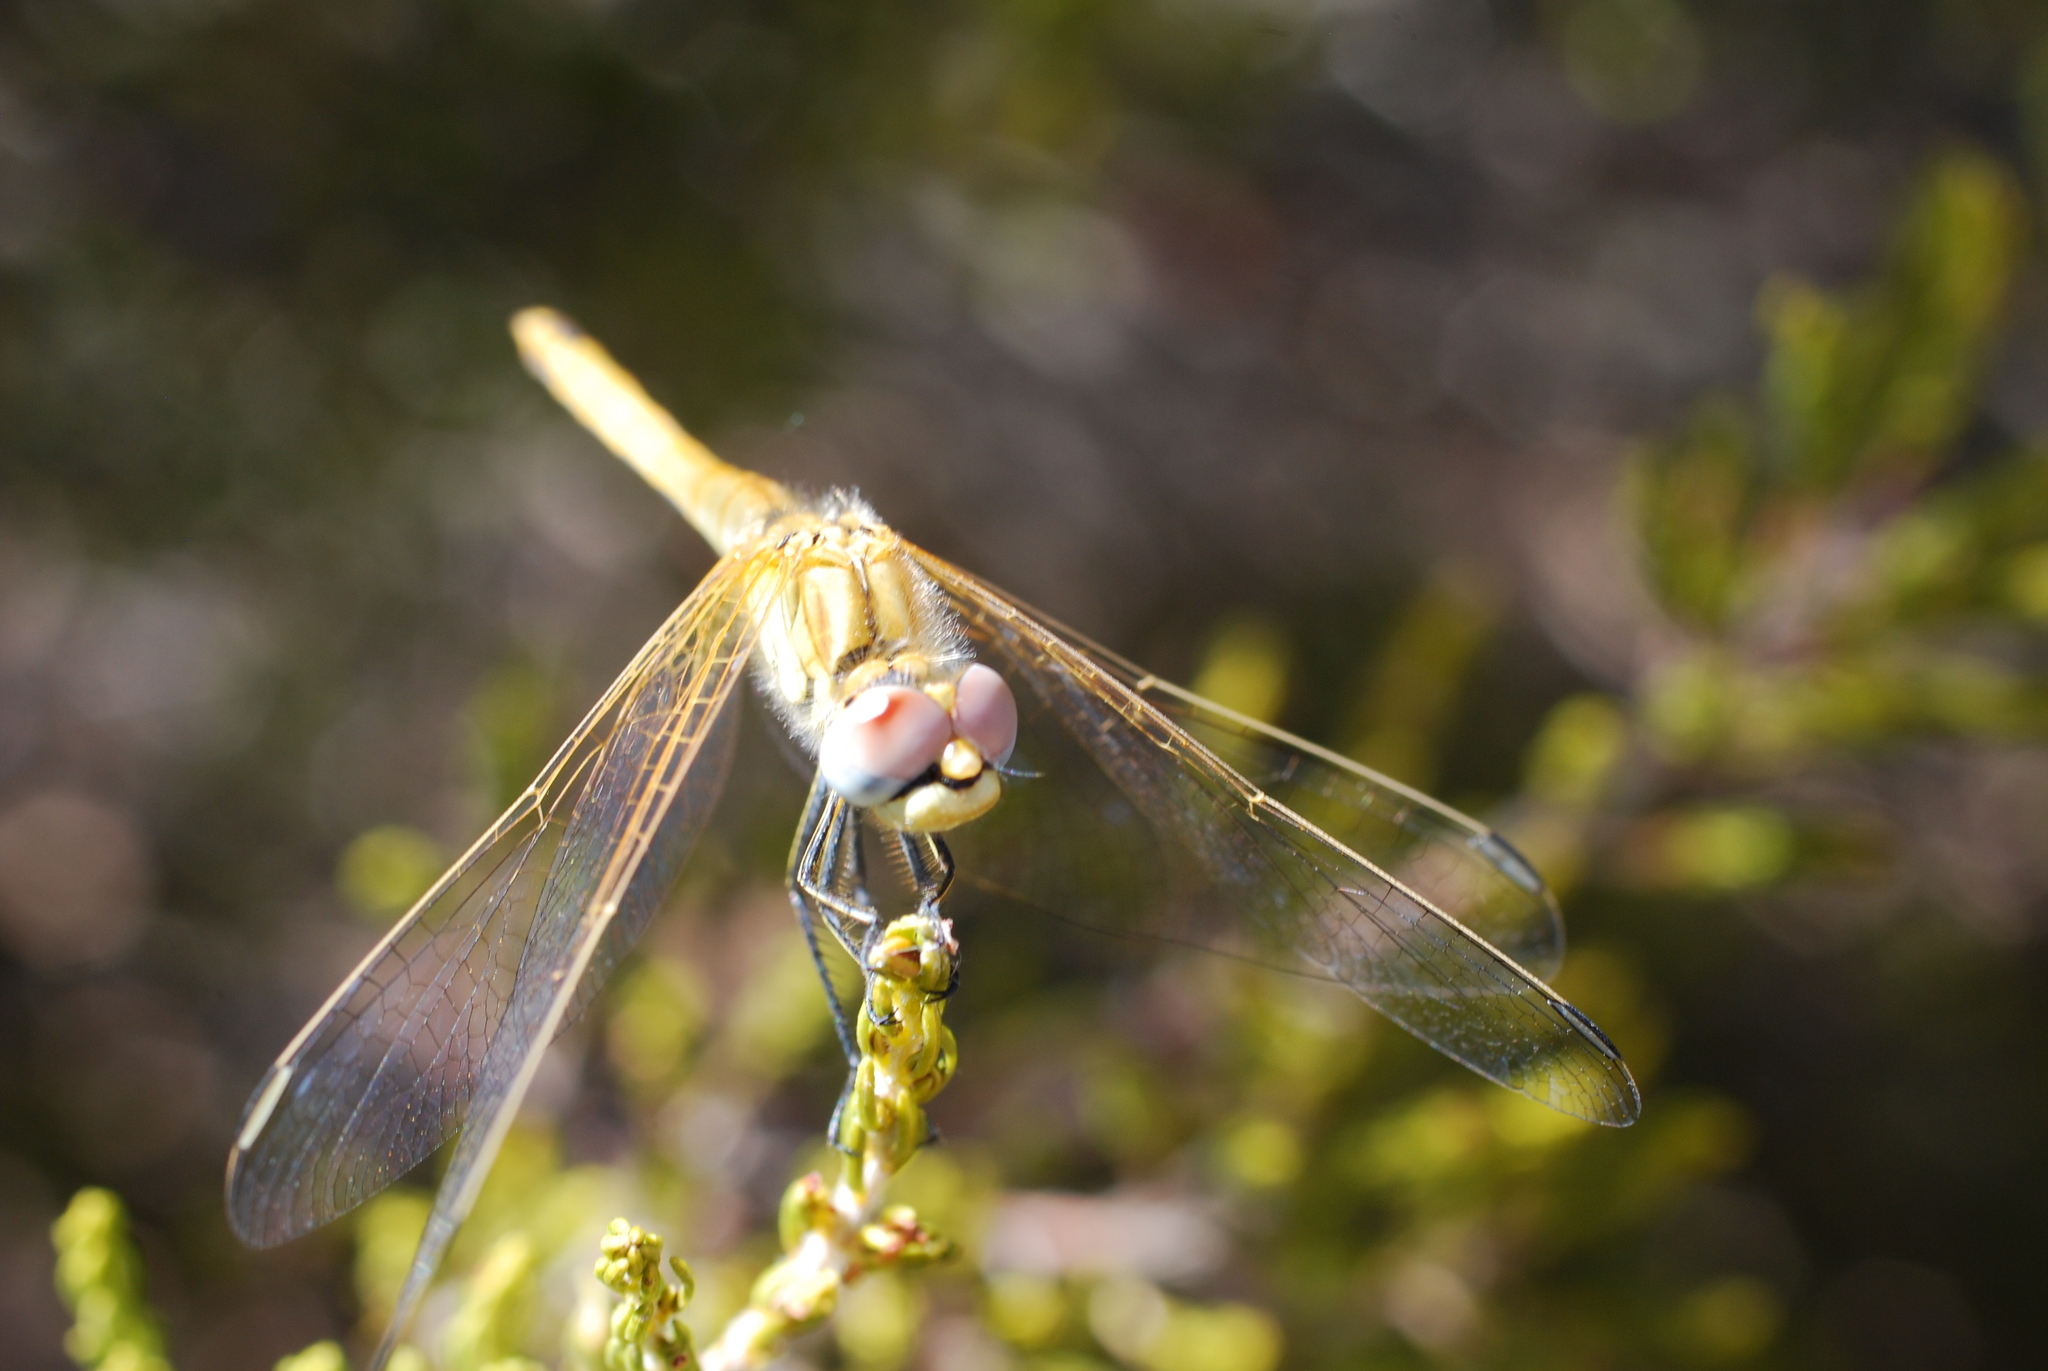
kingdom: Animalia
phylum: Arthropoda
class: Insecta
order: Odonata
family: Libellulidae
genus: Sympetrum
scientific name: Sympetrum fonscolombii
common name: Red-veined darter
